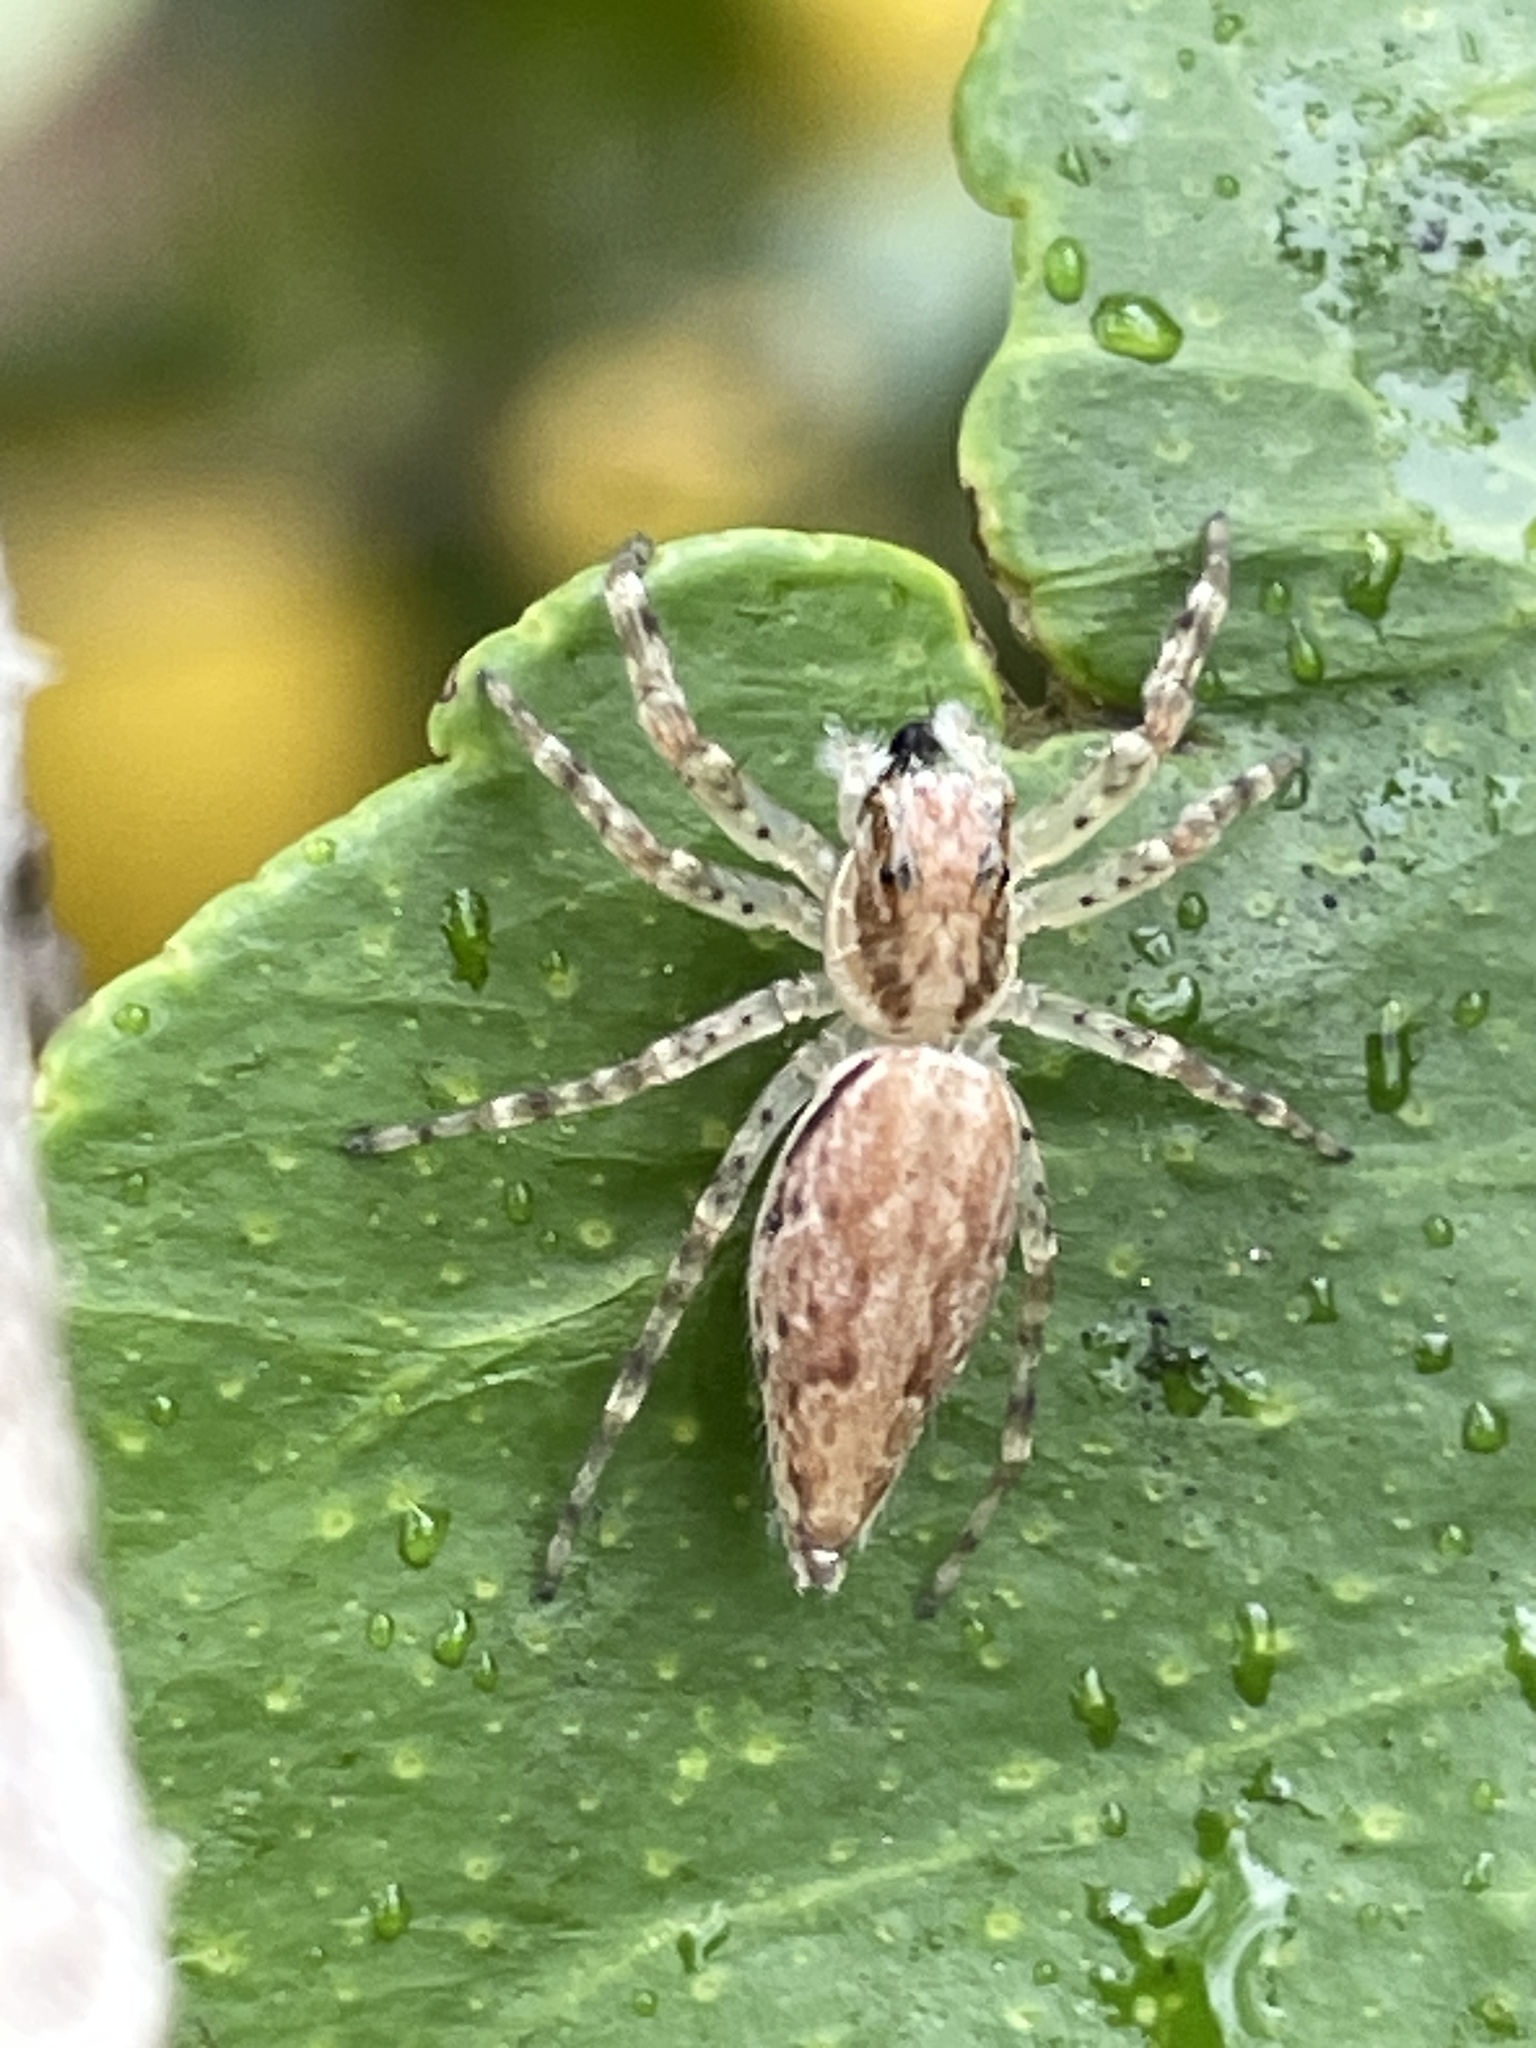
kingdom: Animalia
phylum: Arthropoda
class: Arachnida
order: Araneae
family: Salticidae
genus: Helpis
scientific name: Helpis minitabunda
